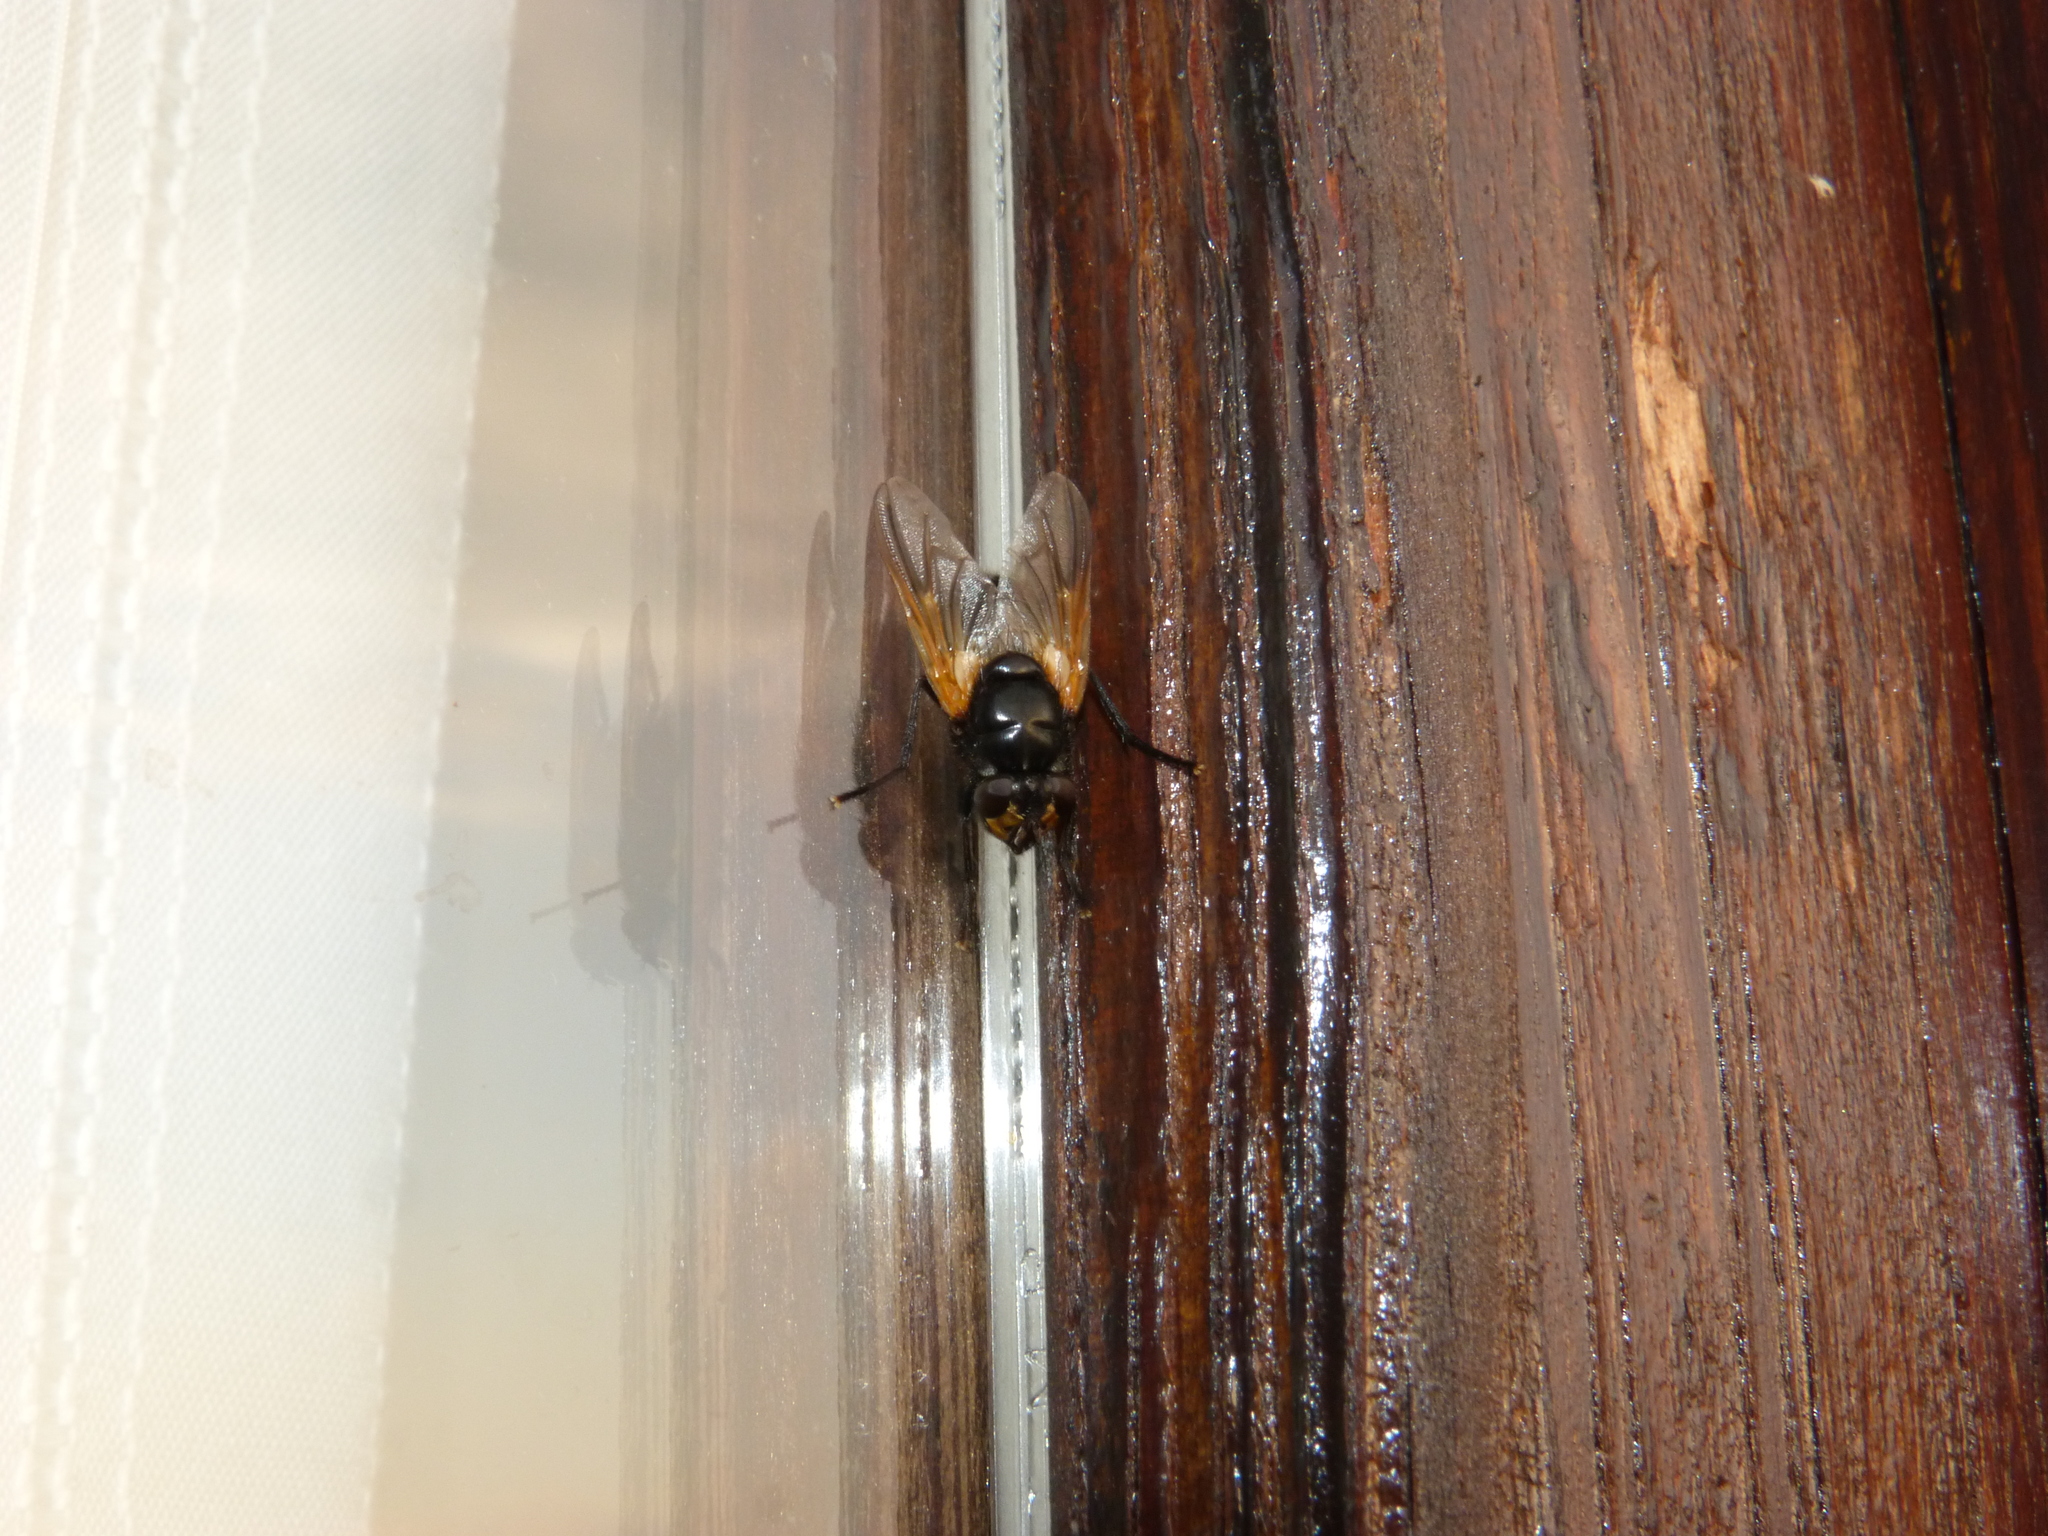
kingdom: Animalia
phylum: Arthropoda
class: Insecta
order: Diptera
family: Muscidae
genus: Mesembrina
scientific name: Mesembrina meridiana
